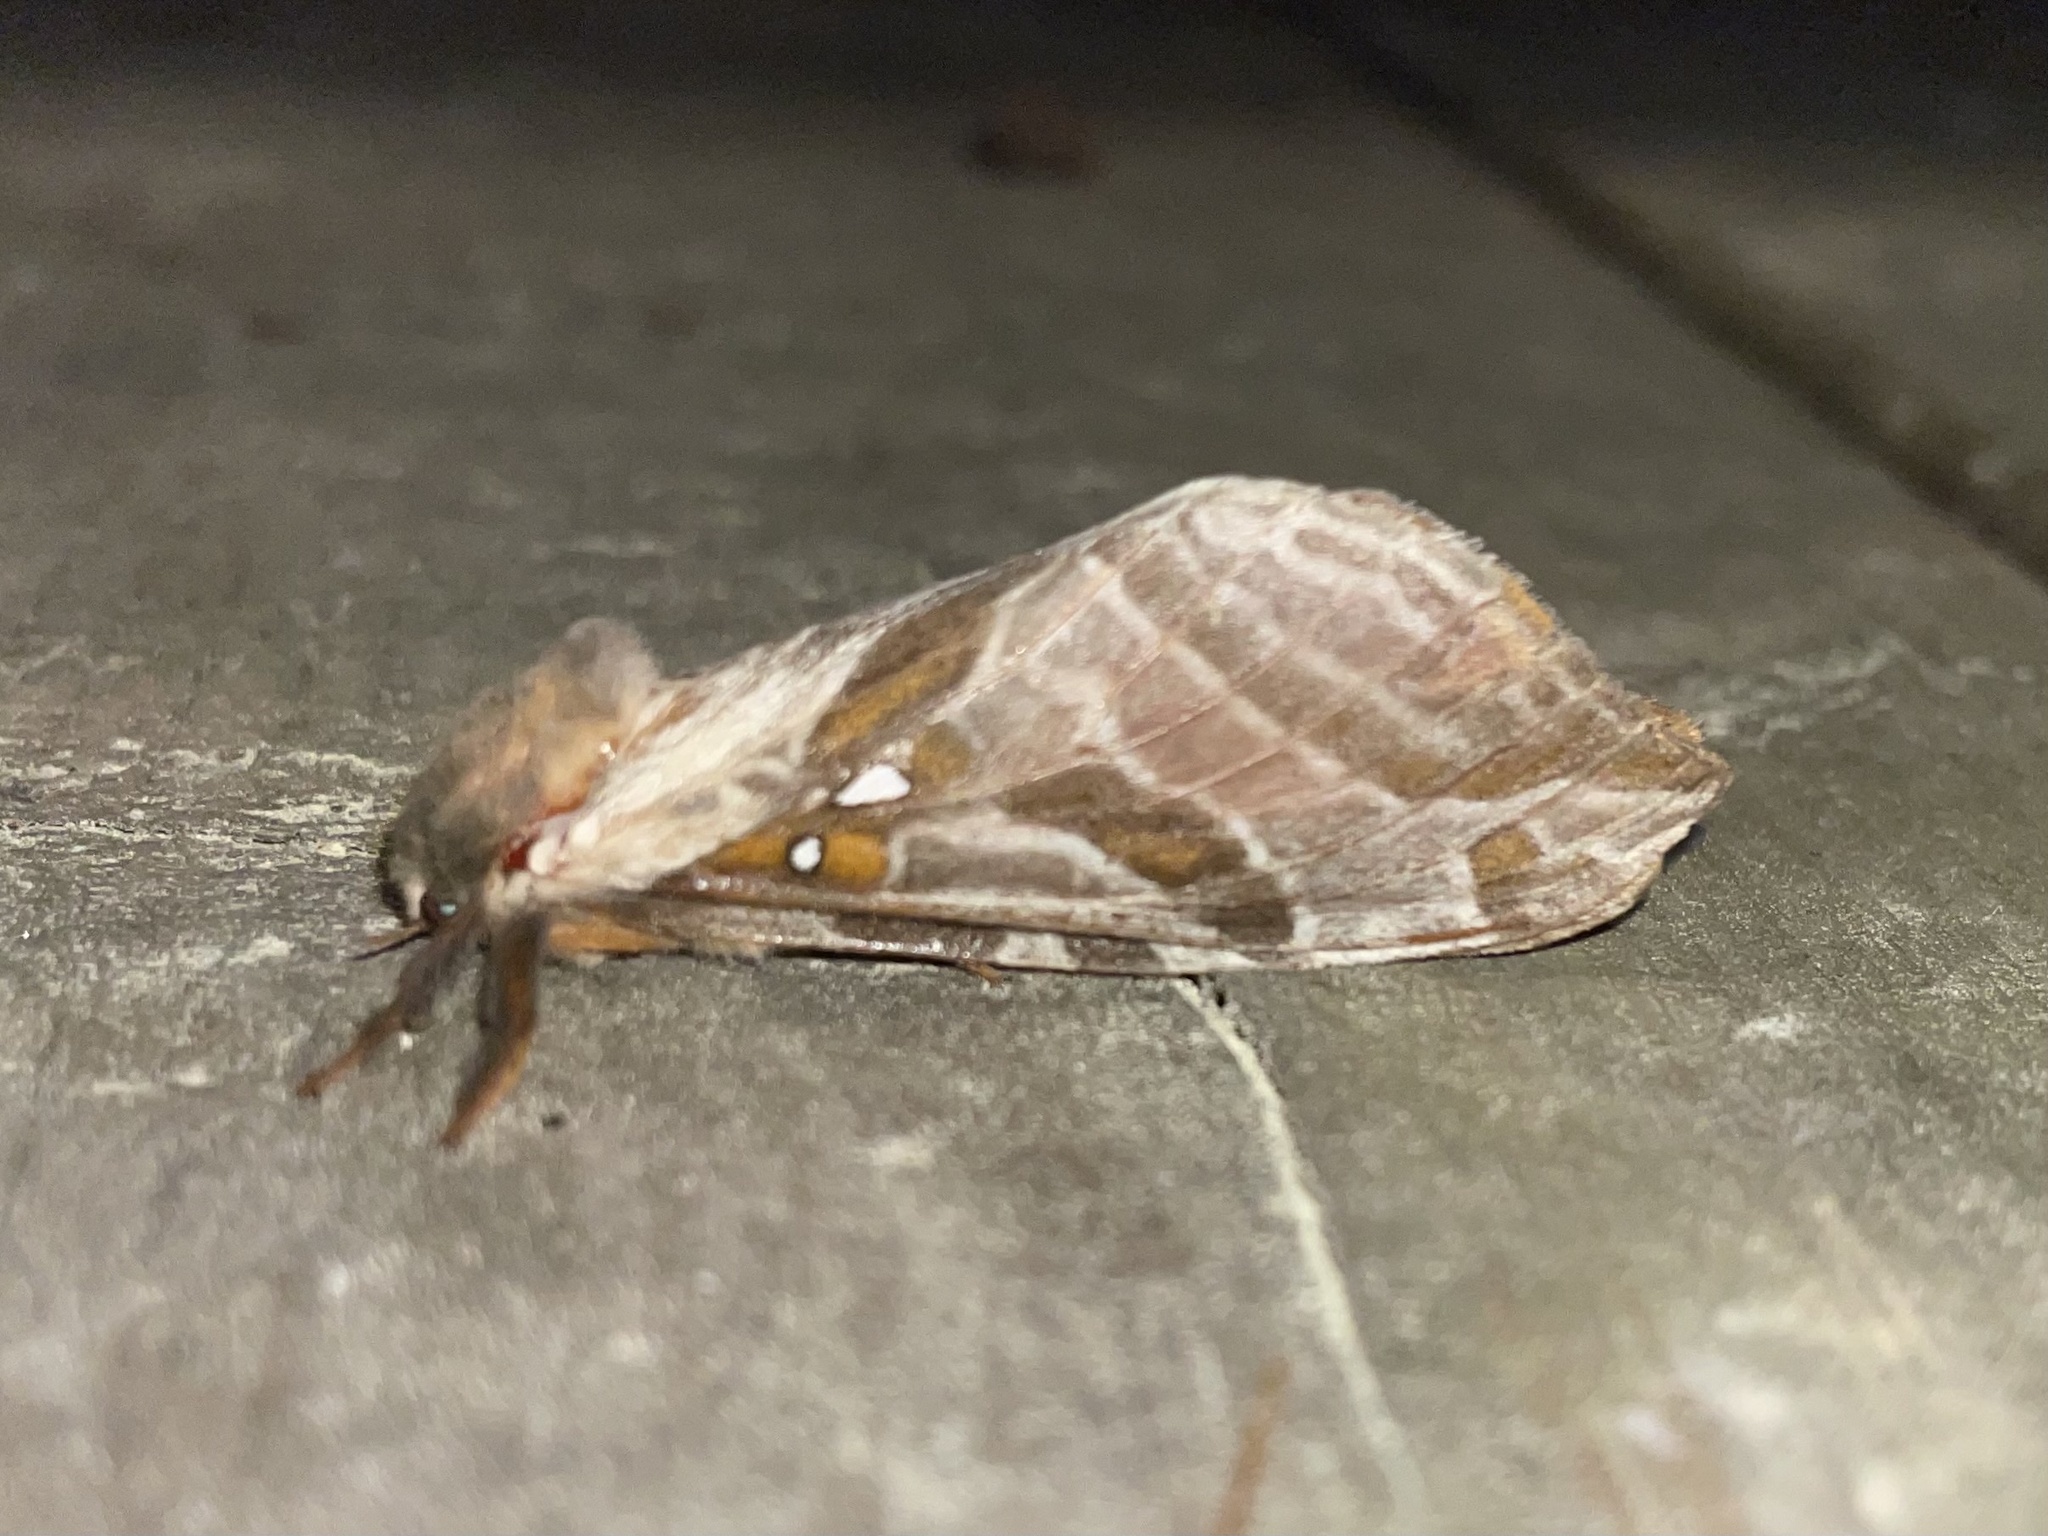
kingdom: Animalia
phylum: Arthropoda
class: Insecta
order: Lepidoptera
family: Hepialidae
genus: Sthenopis
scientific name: Sthenopis argenteomaculatus
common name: Silver-spotted ghost moth
